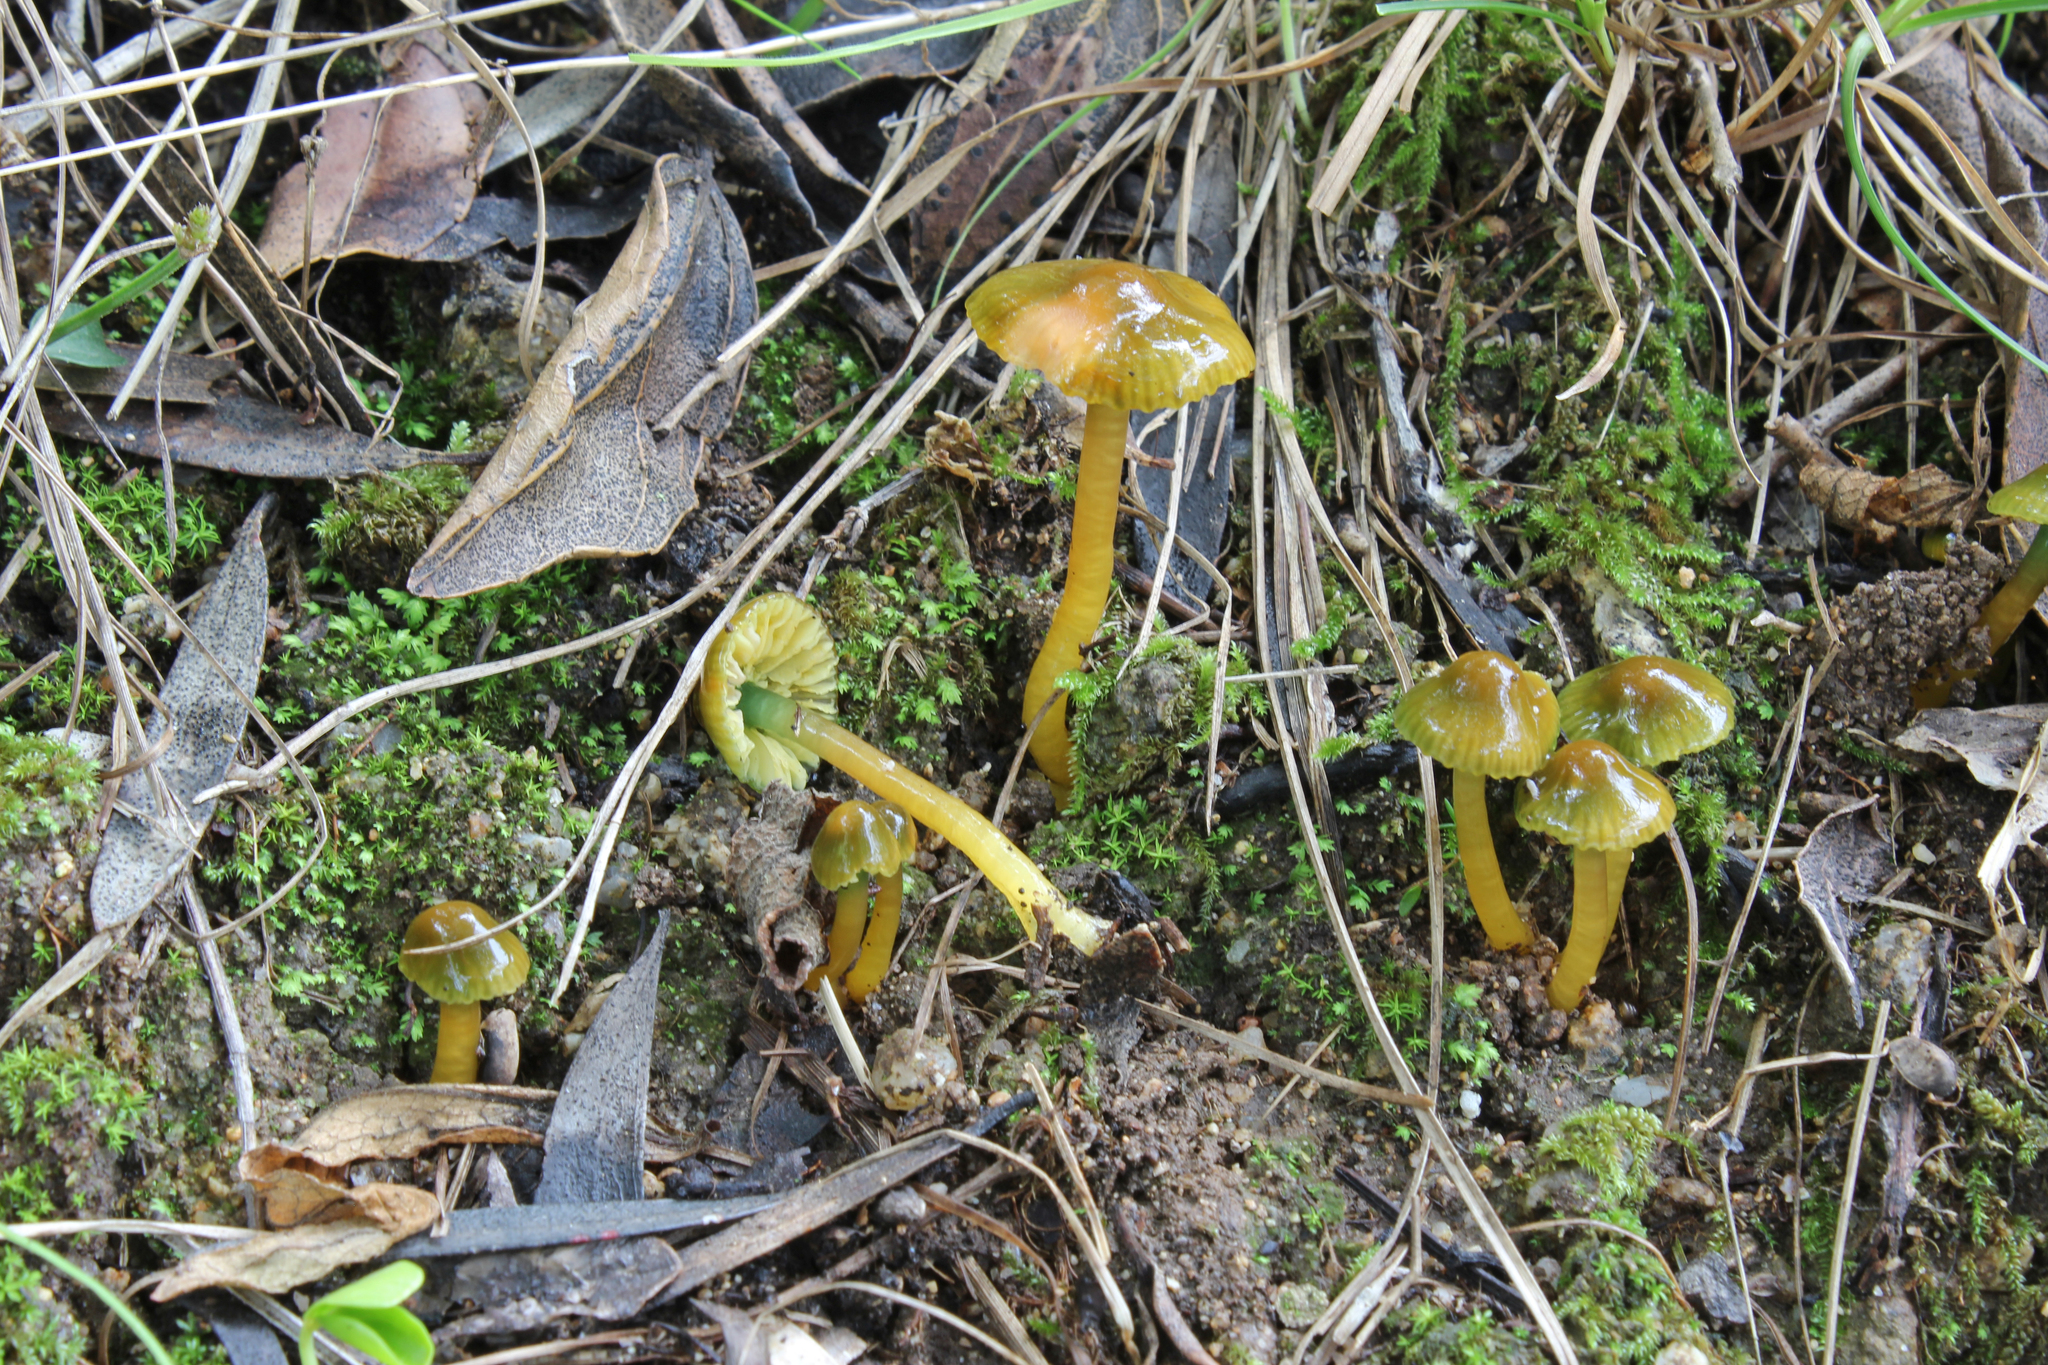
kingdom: Fungi
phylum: Basidiomycota
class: Agaricomycetes
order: Agaricales
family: Hygrophoraceae
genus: Gliophorus
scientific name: Gliophorus psittacinus
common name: Parrot wax-cap
